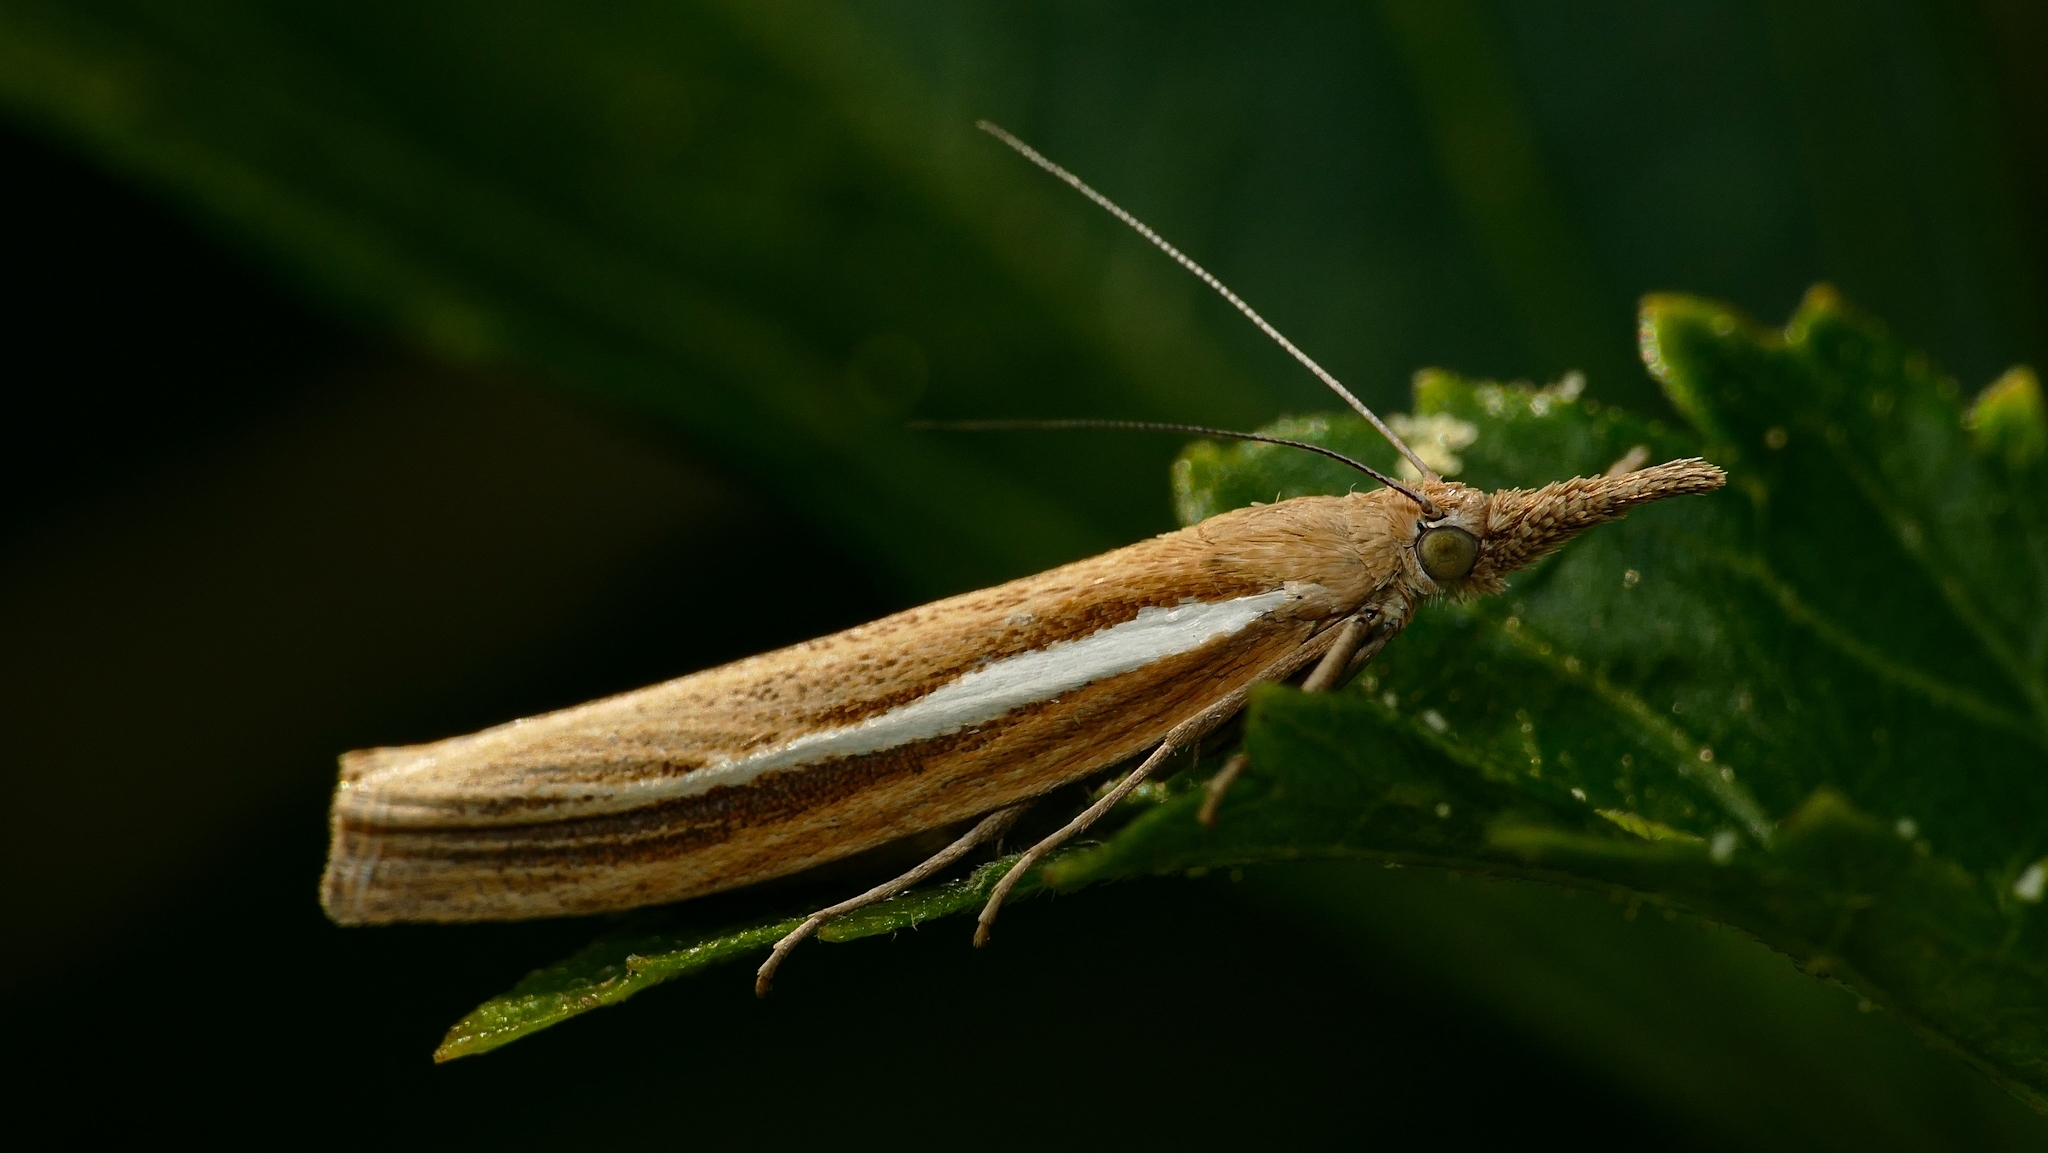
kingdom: Animalia
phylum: Arthropoda
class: Insecta
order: Lepidoptera
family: Crambidae
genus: Agriphila
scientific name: Agriphila tristellus
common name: Common grass-veneer
